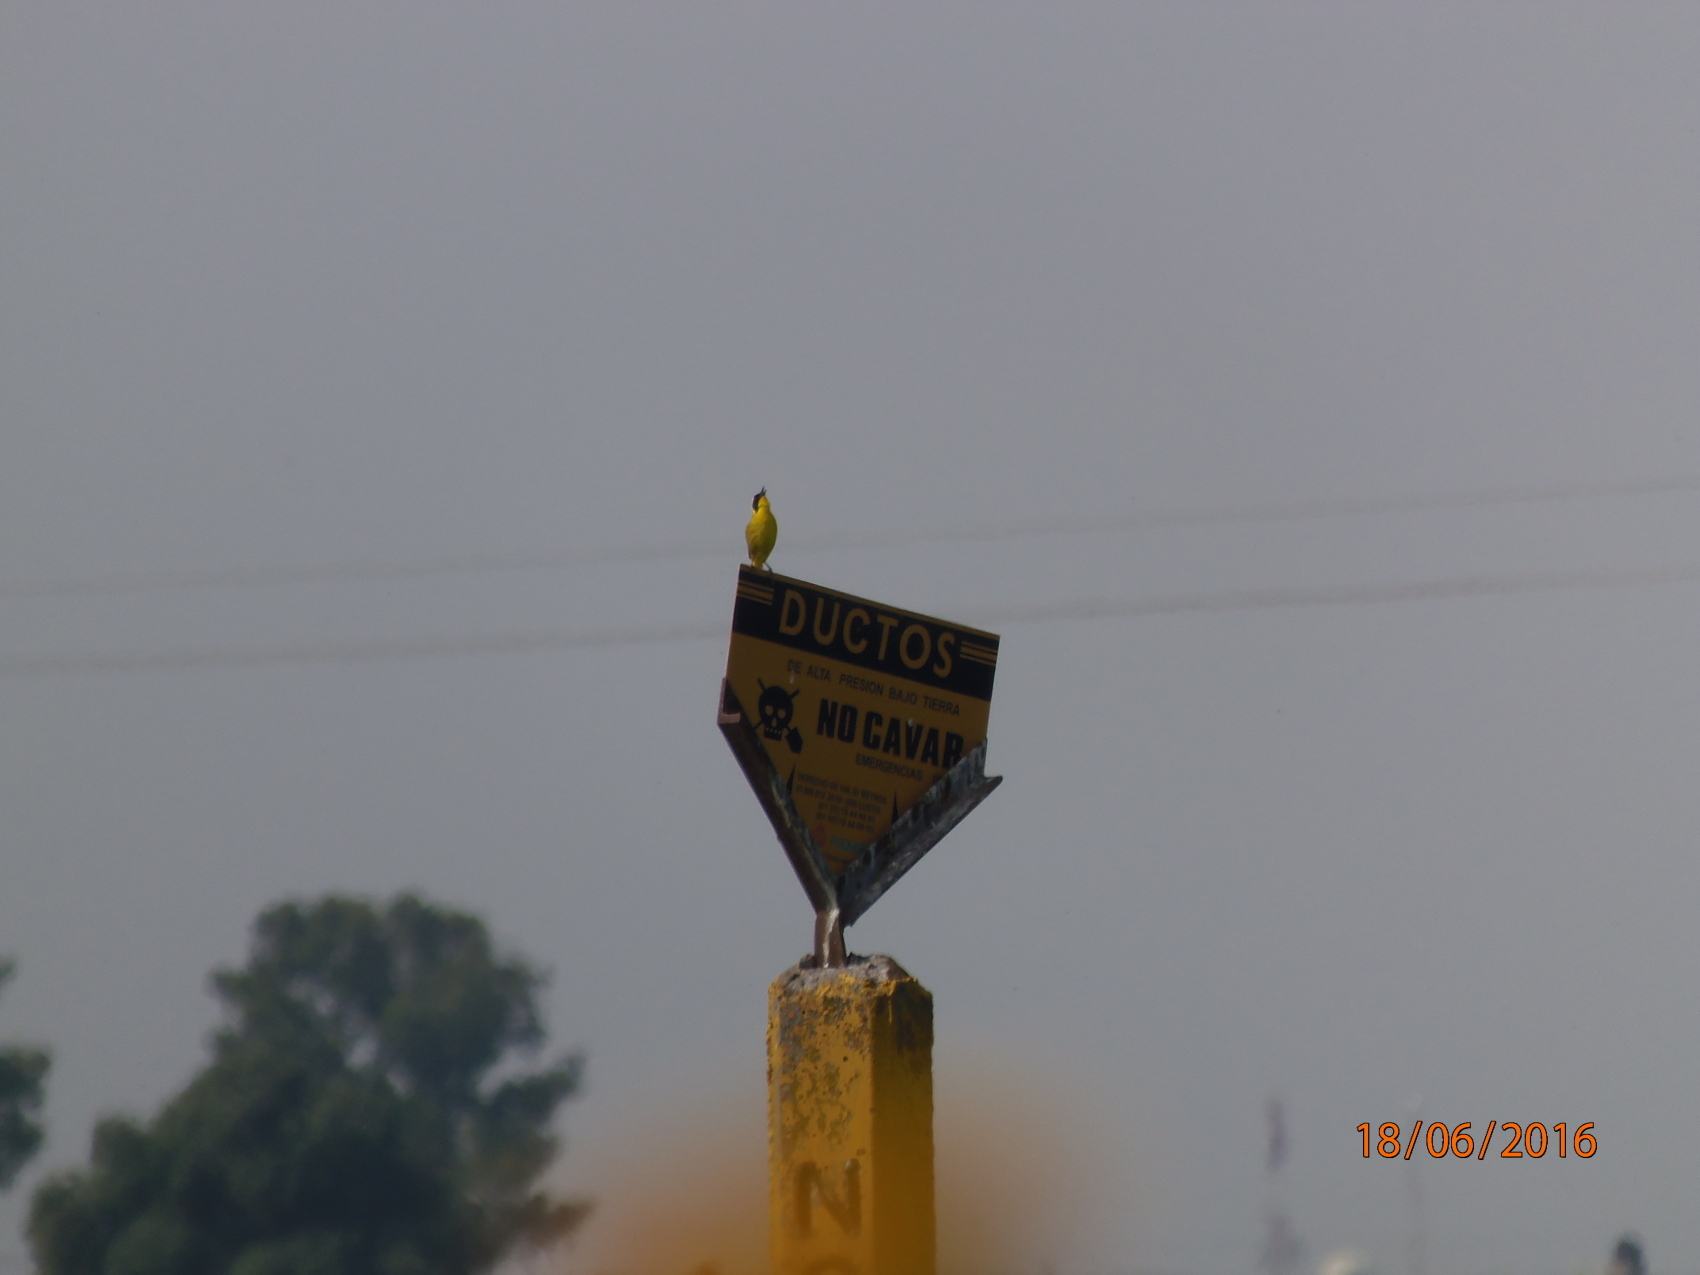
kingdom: Animalia
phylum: Chordata
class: Aves
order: Passeriformes
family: Parulidae
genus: Geothlypis
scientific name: Geothlypis trichas
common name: Common yellowthroat
